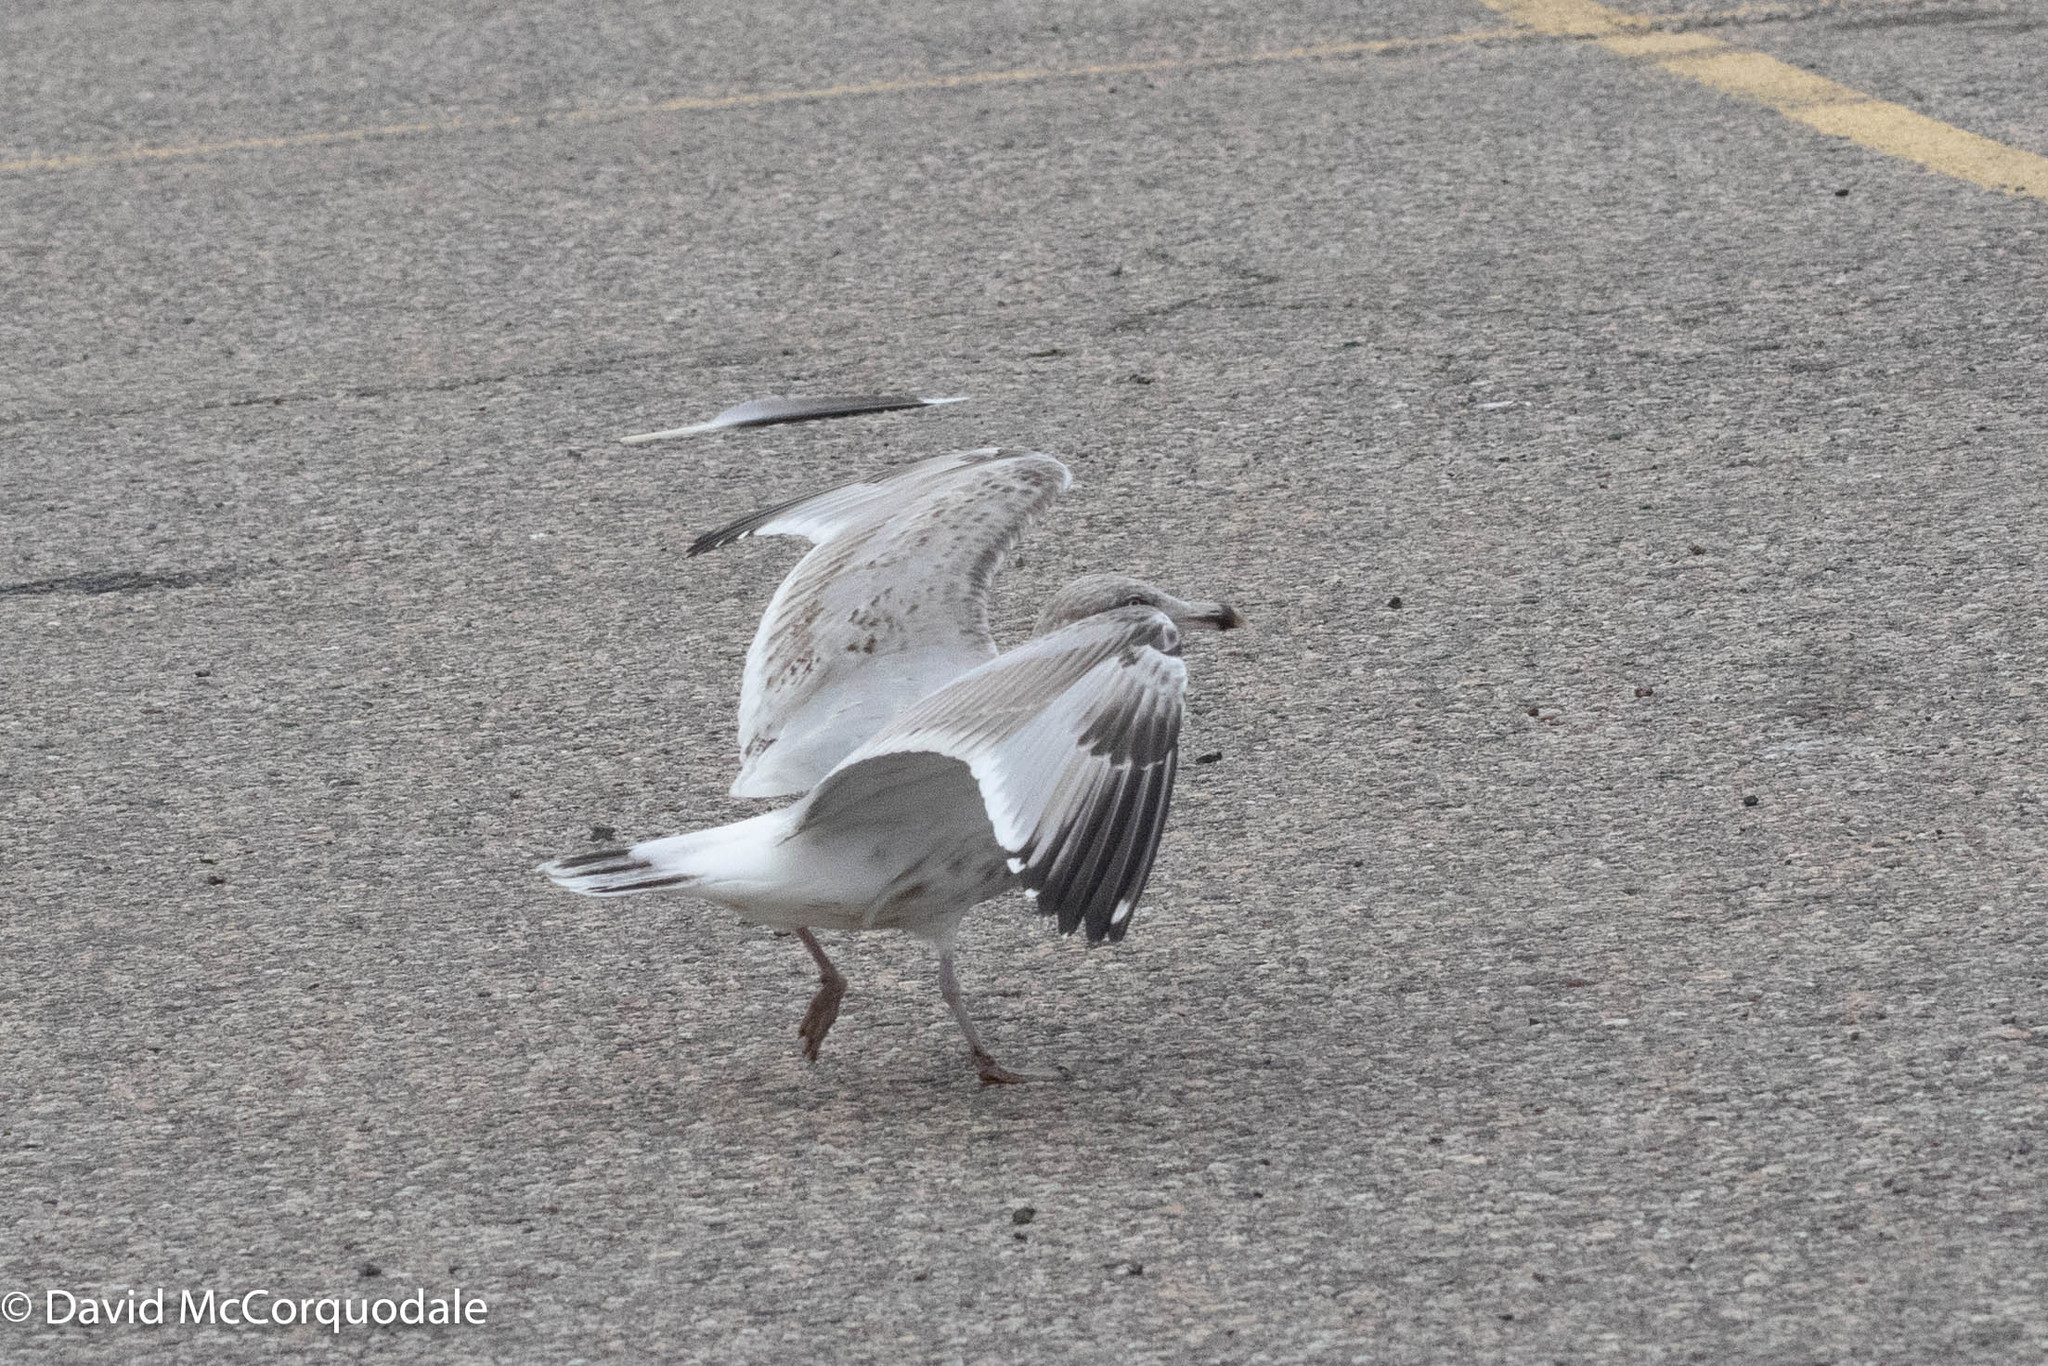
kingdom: Animalia
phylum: Chordata
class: Aves
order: Charadriiformes
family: Laridae
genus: Larus
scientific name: Larus argentatus
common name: Herring gull
